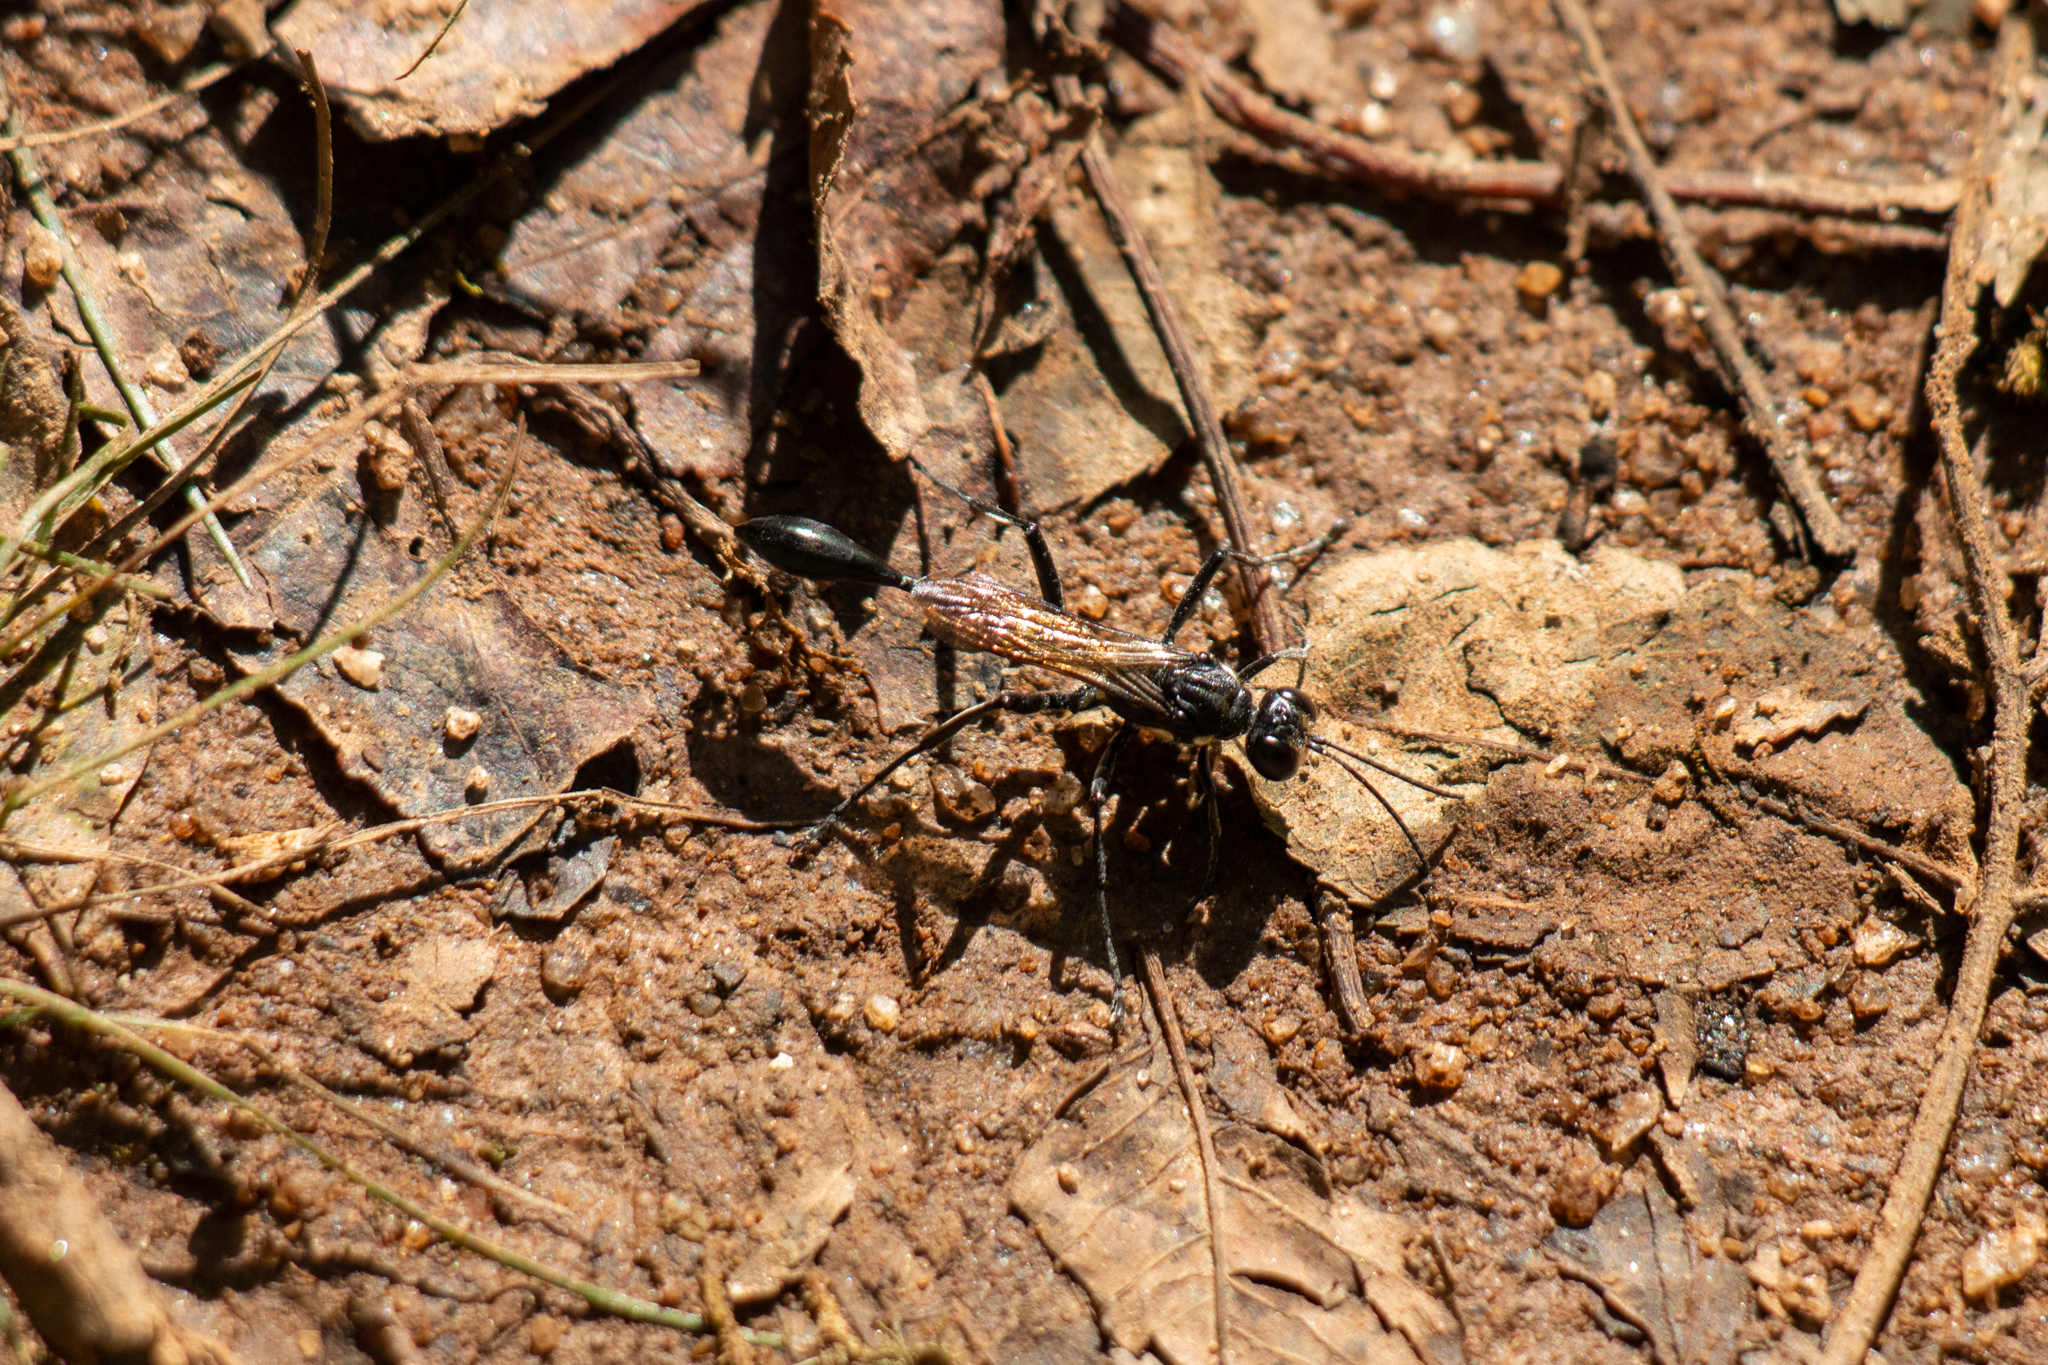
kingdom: Animalia
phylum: Arthropoda
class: Insecta
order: Hymenoptera
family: Sphecidae
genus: Eremnophila
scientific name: Eremnophila aureonotata
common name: Gold-marked thread-waisted wasp
